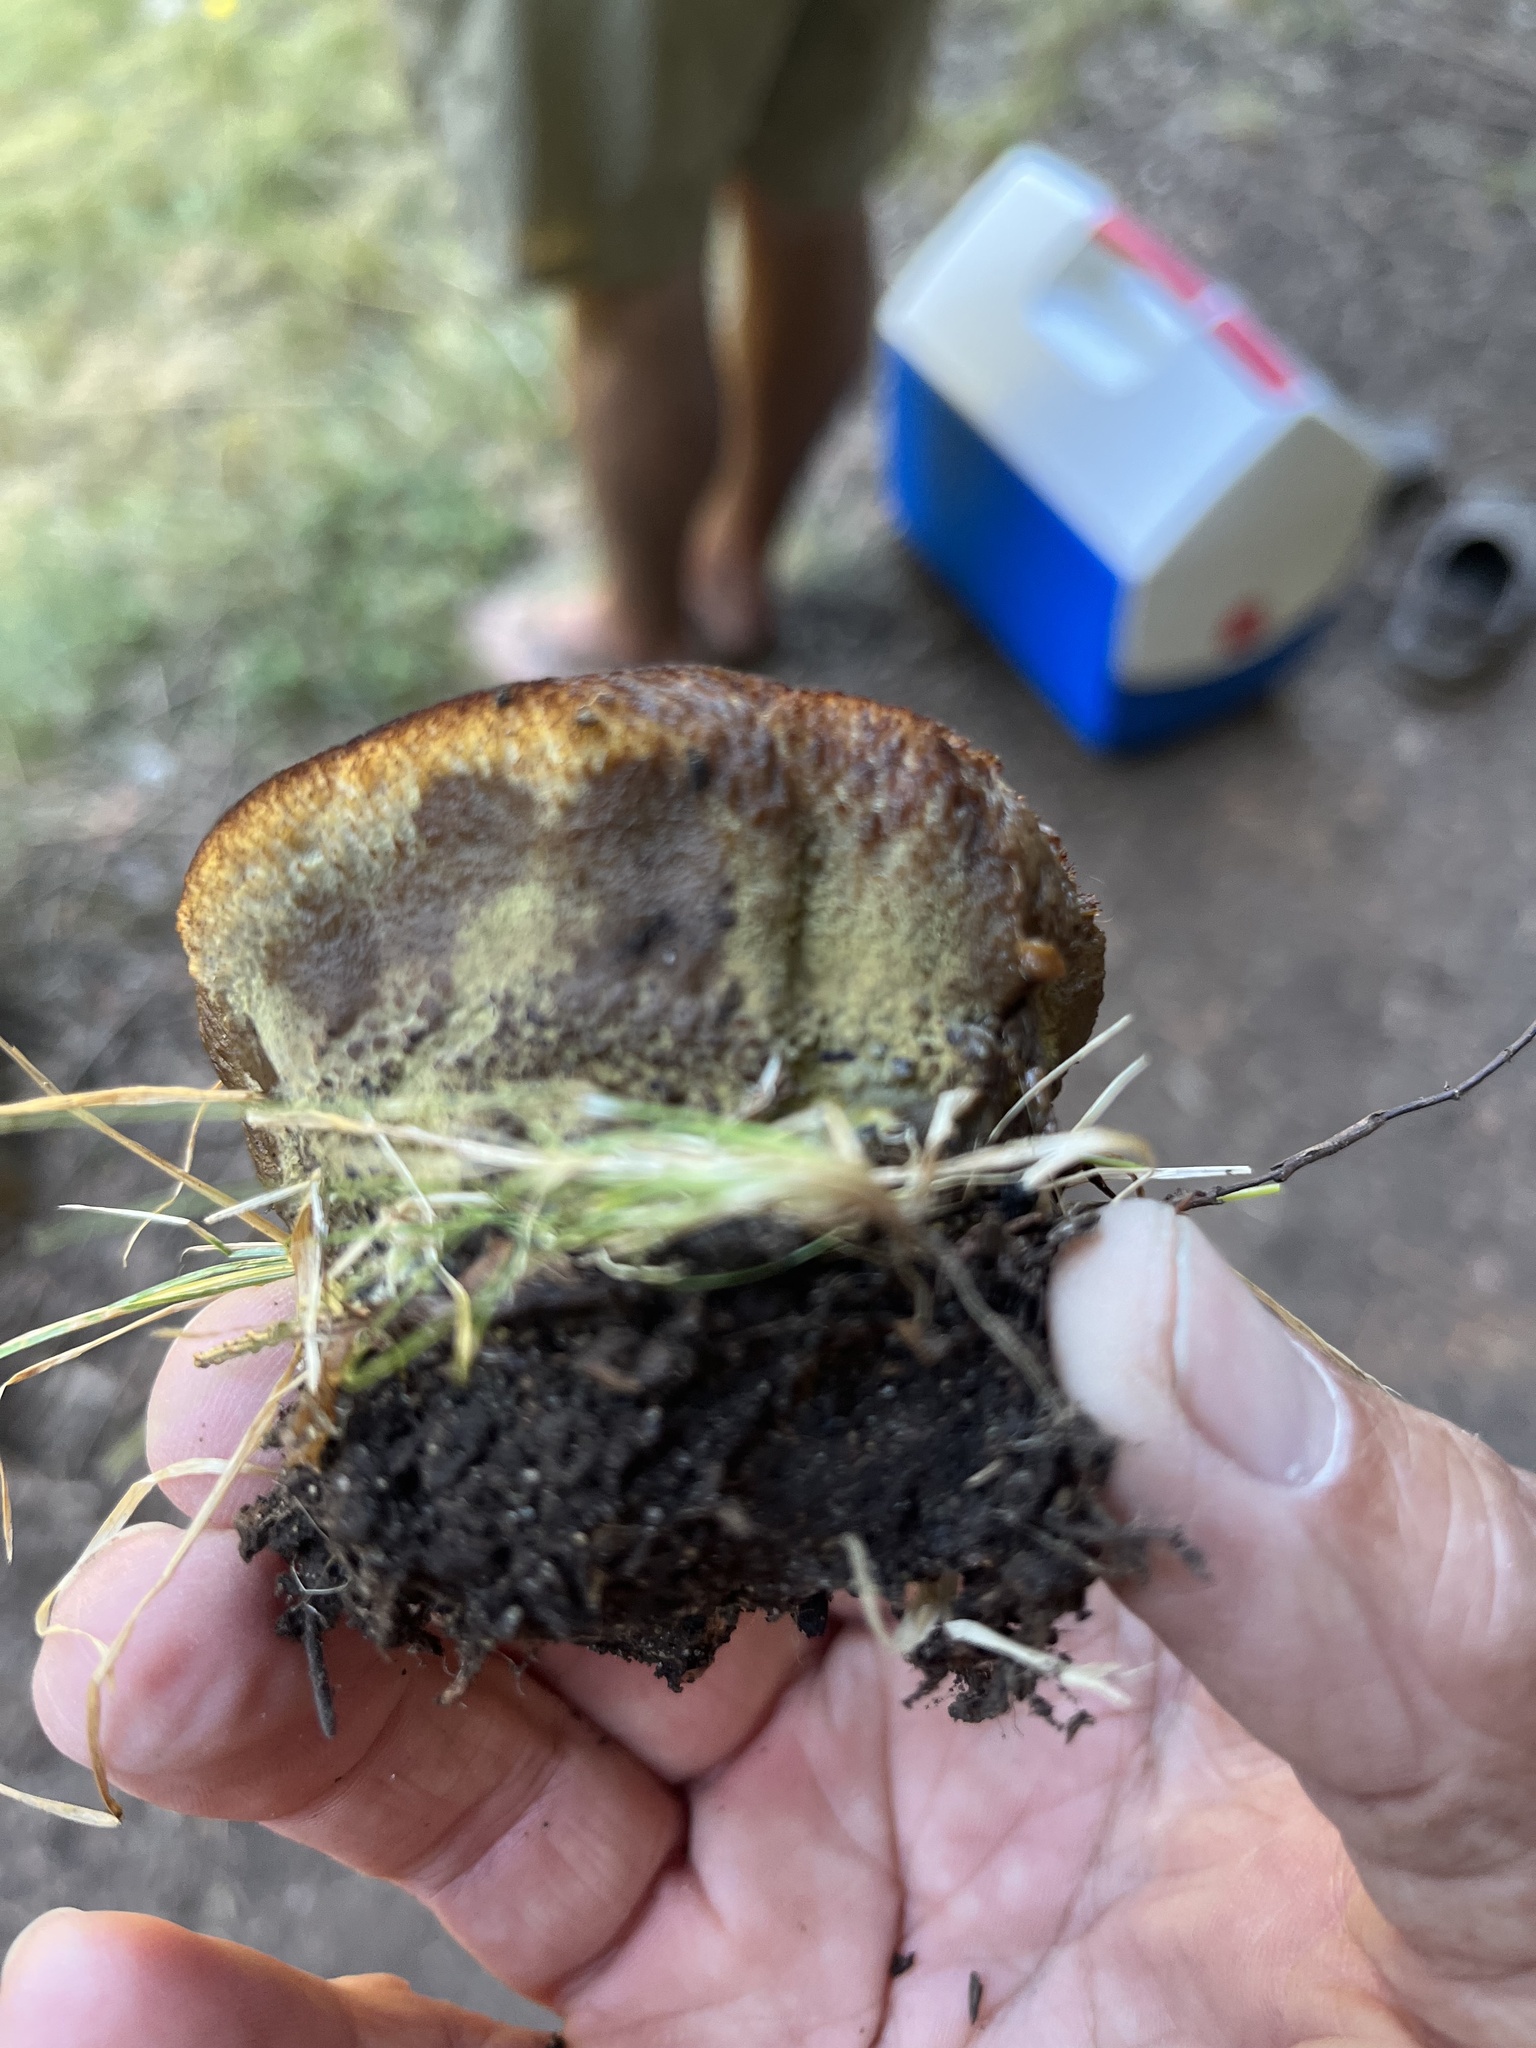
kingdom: Fungi
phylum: Basidiomycota
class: Agaricomycetes
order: Polyporales
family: Laetiporaceae
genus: Phaeolus
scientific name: Phaeolus schweinitzii
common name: Dyer's mazegill
